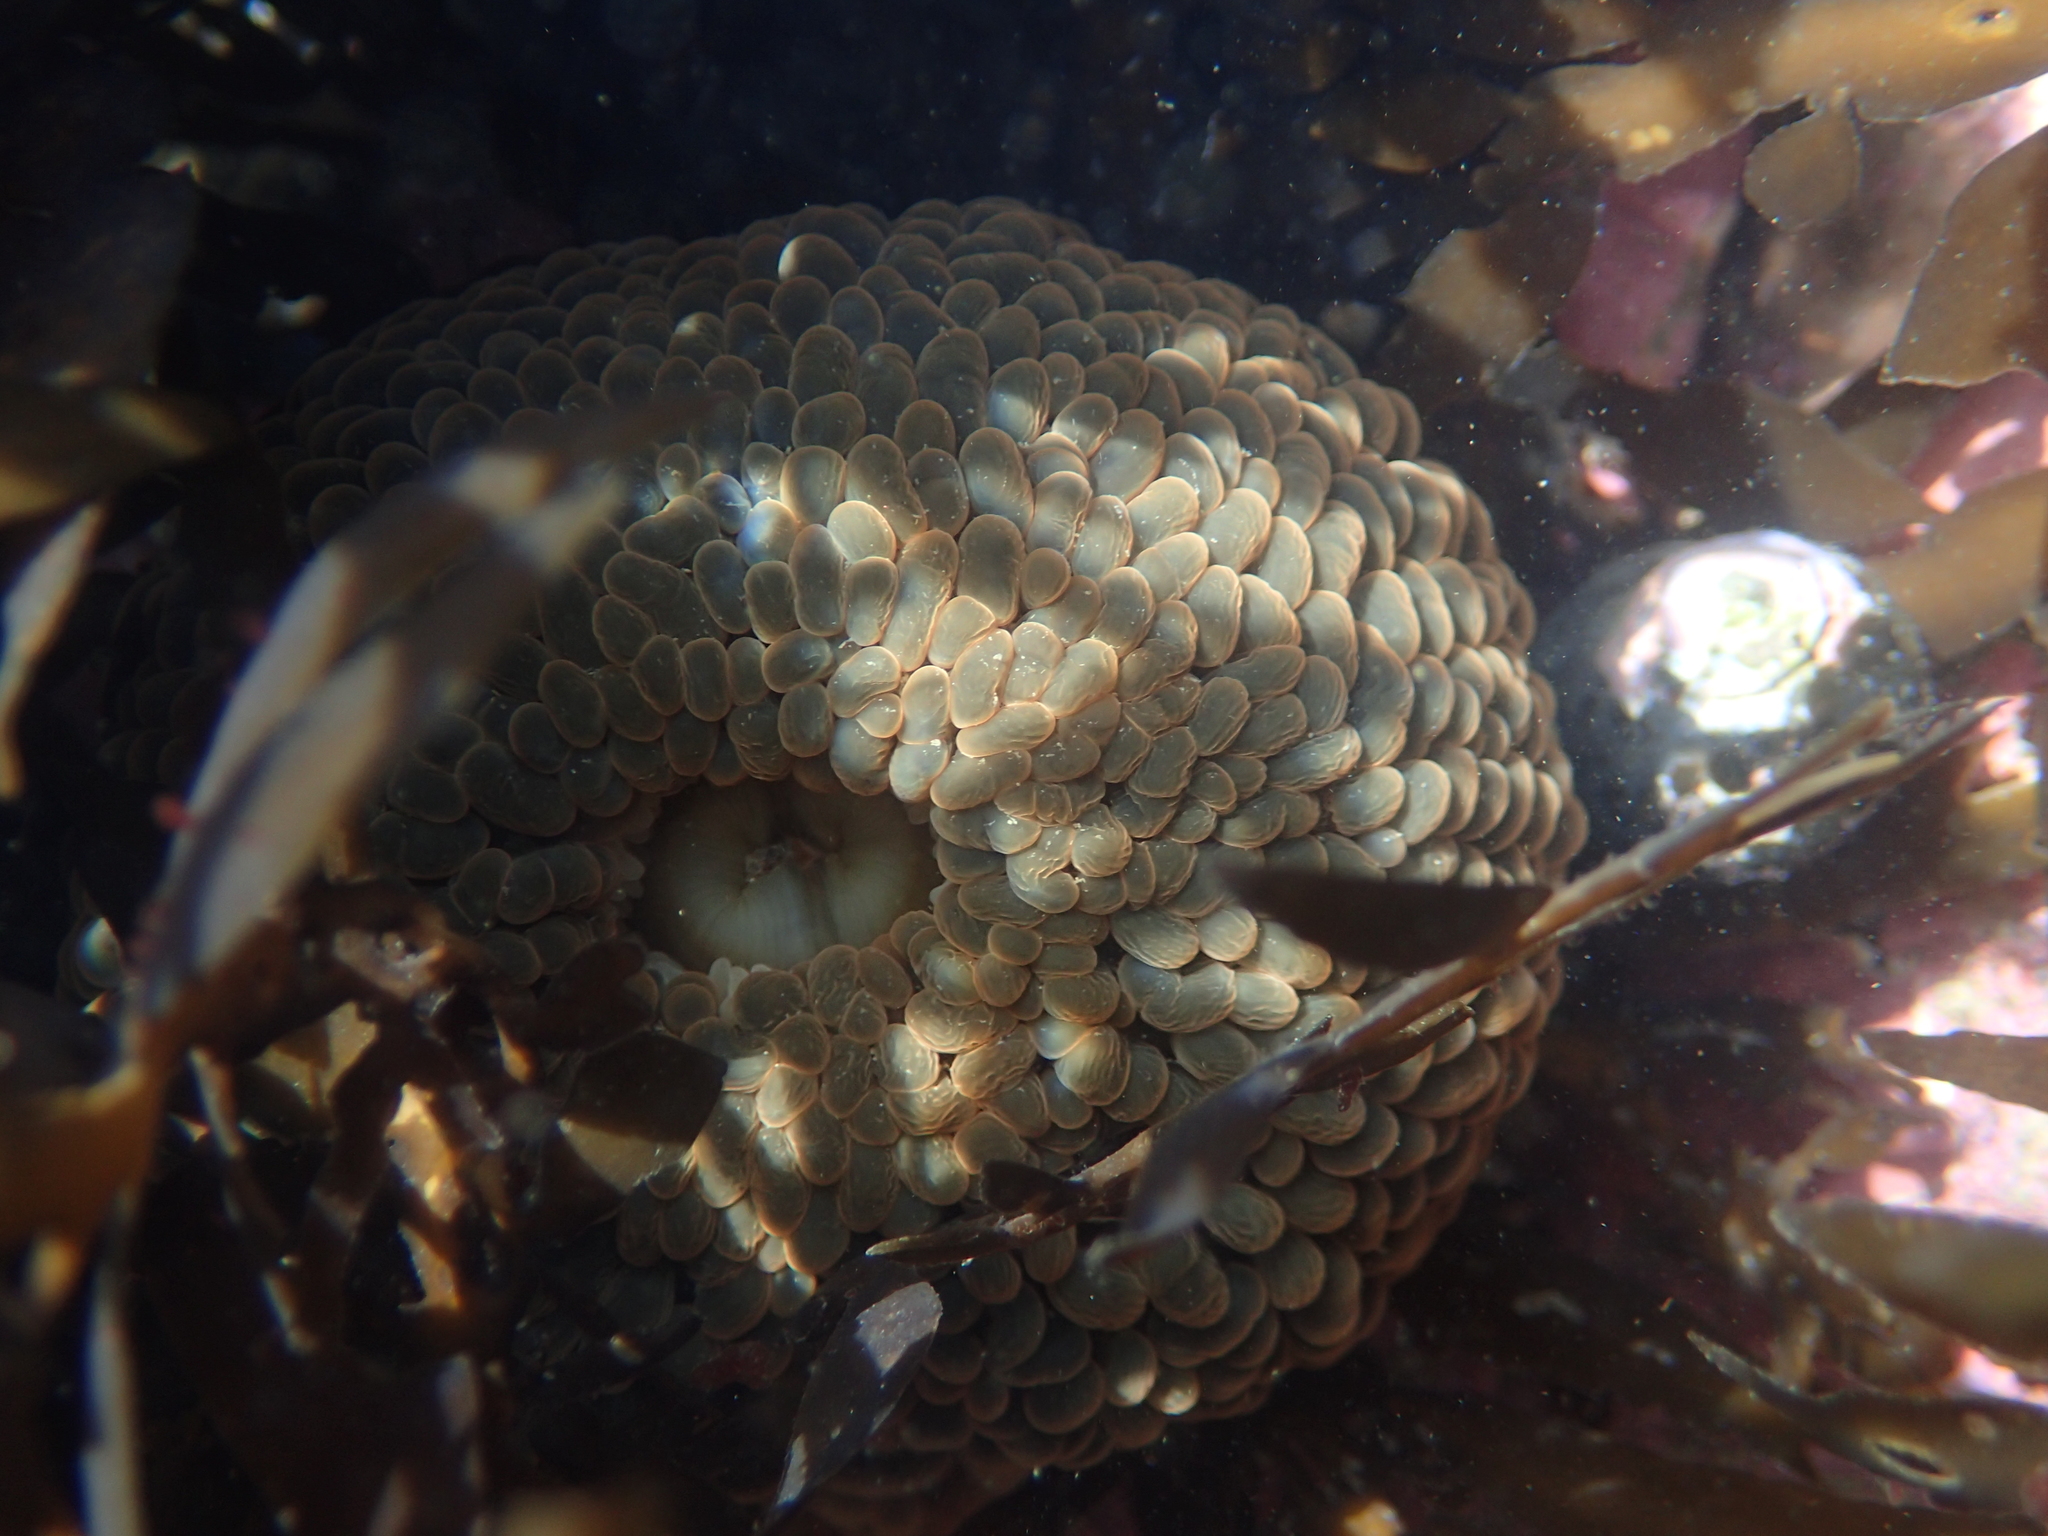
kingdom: Animalia
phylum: Cnidaria
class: Anthozoa
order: Actiniaria
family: Actiniidae
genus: Phlyctenactis
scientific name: Phlyctenactis tuberculosa
